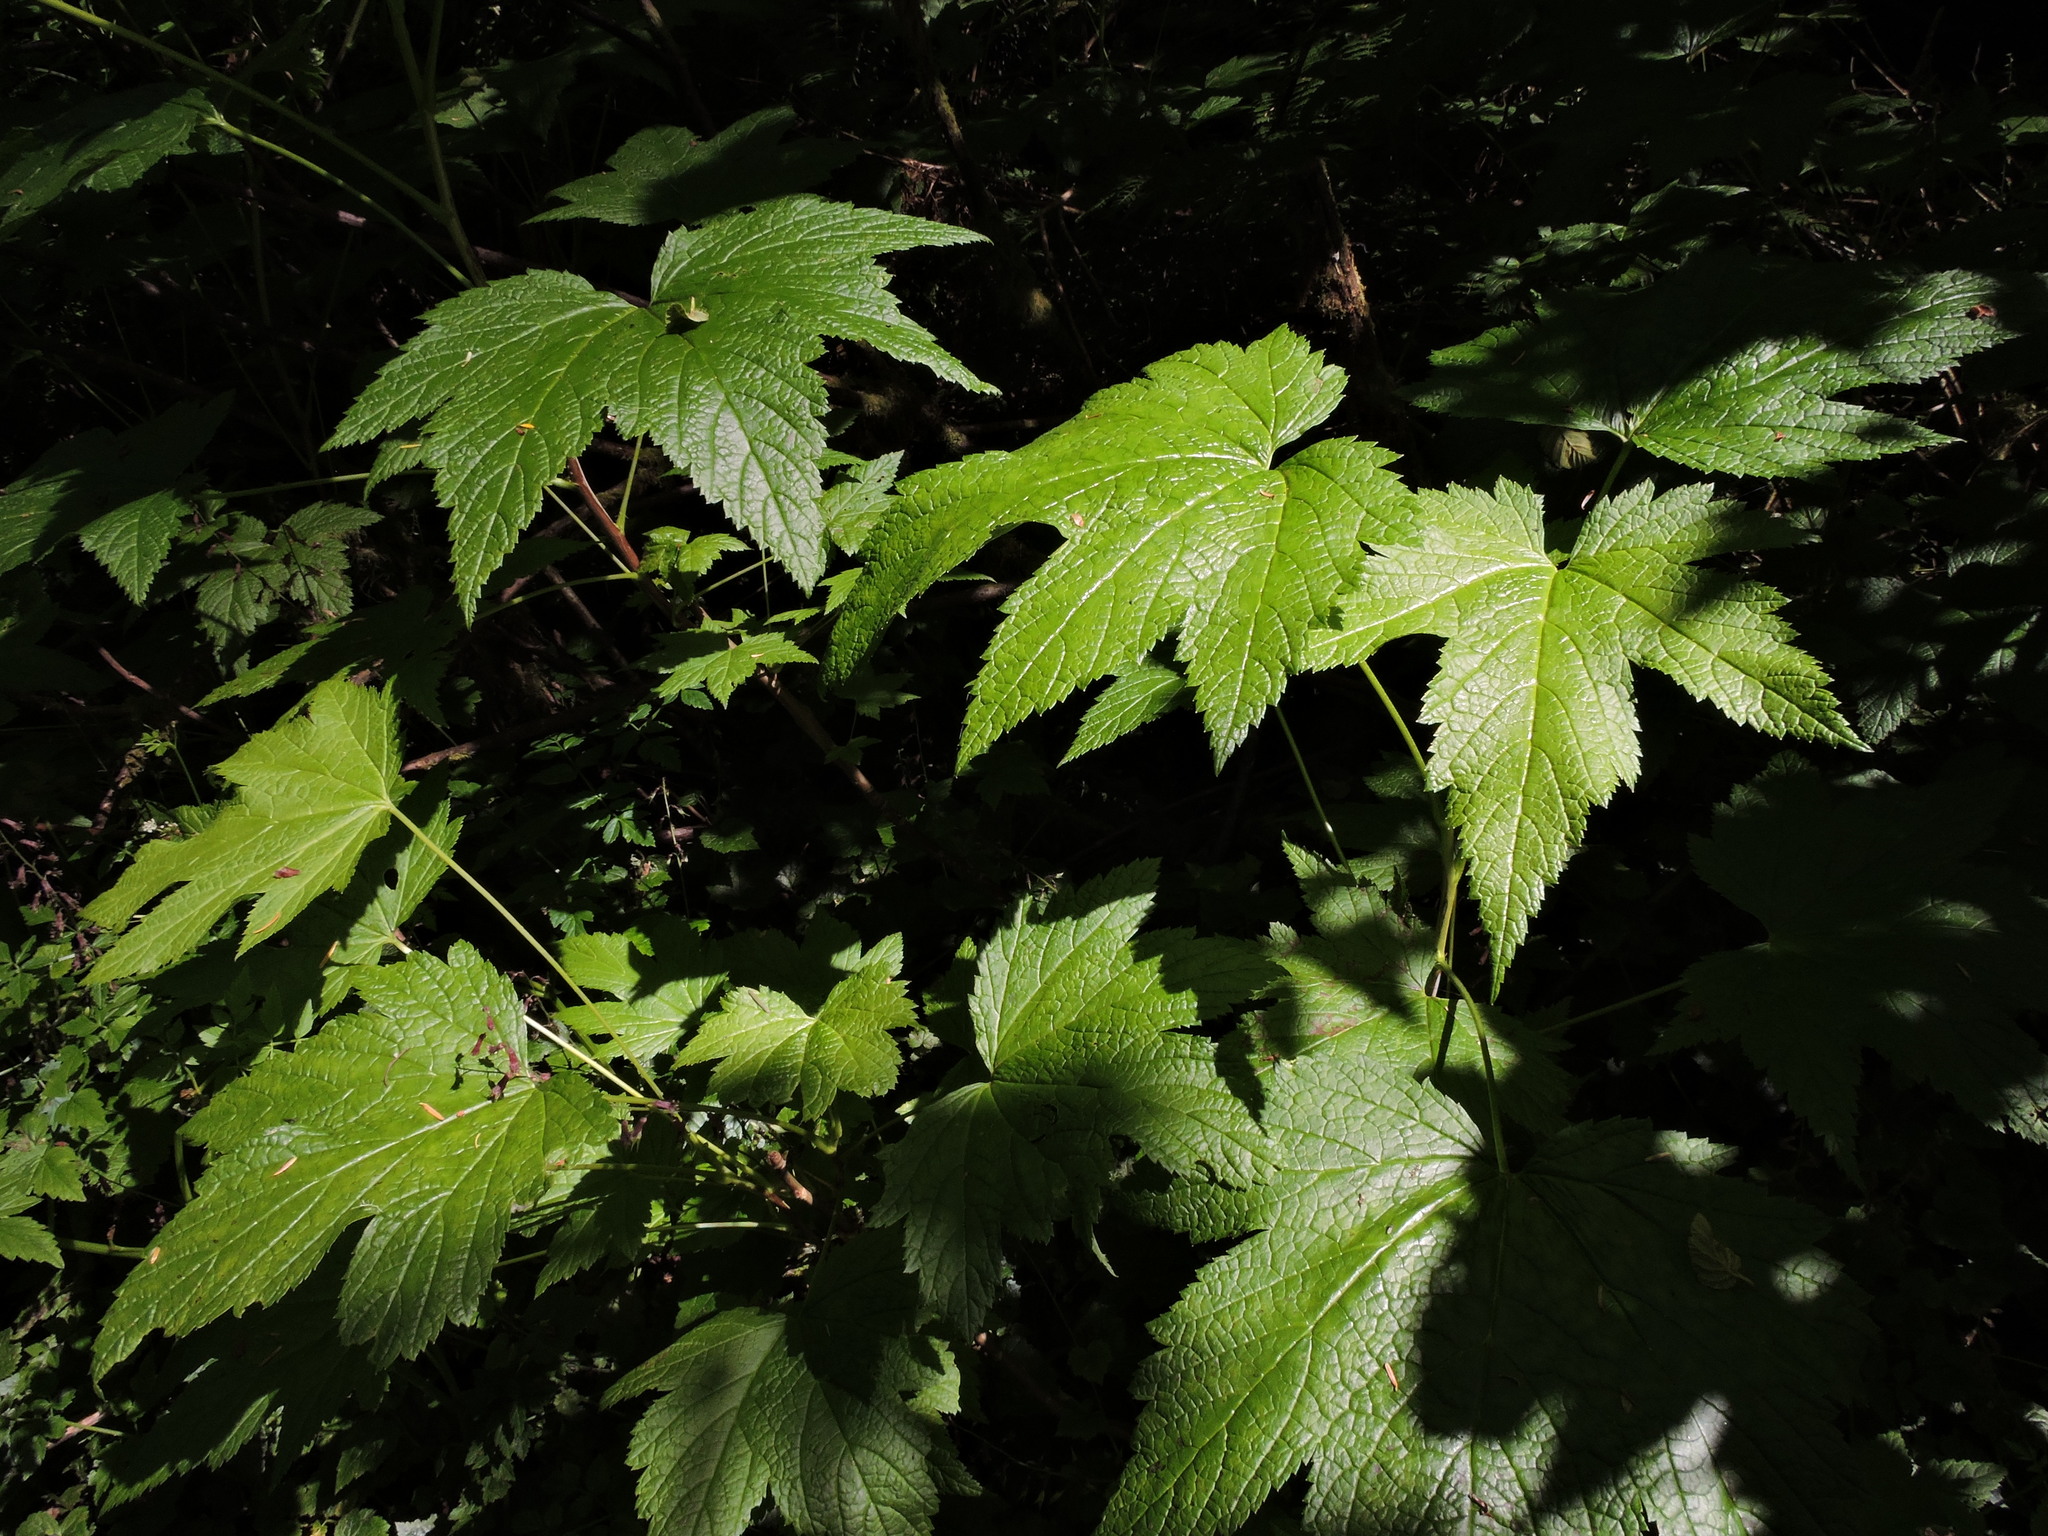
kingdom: Plantae
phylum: Tracheophyta
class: Magnoliopsida
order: Saxifragales
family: Grossulariaceae
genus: Ribes
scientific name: Ribes bracteosum
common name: California black currant
